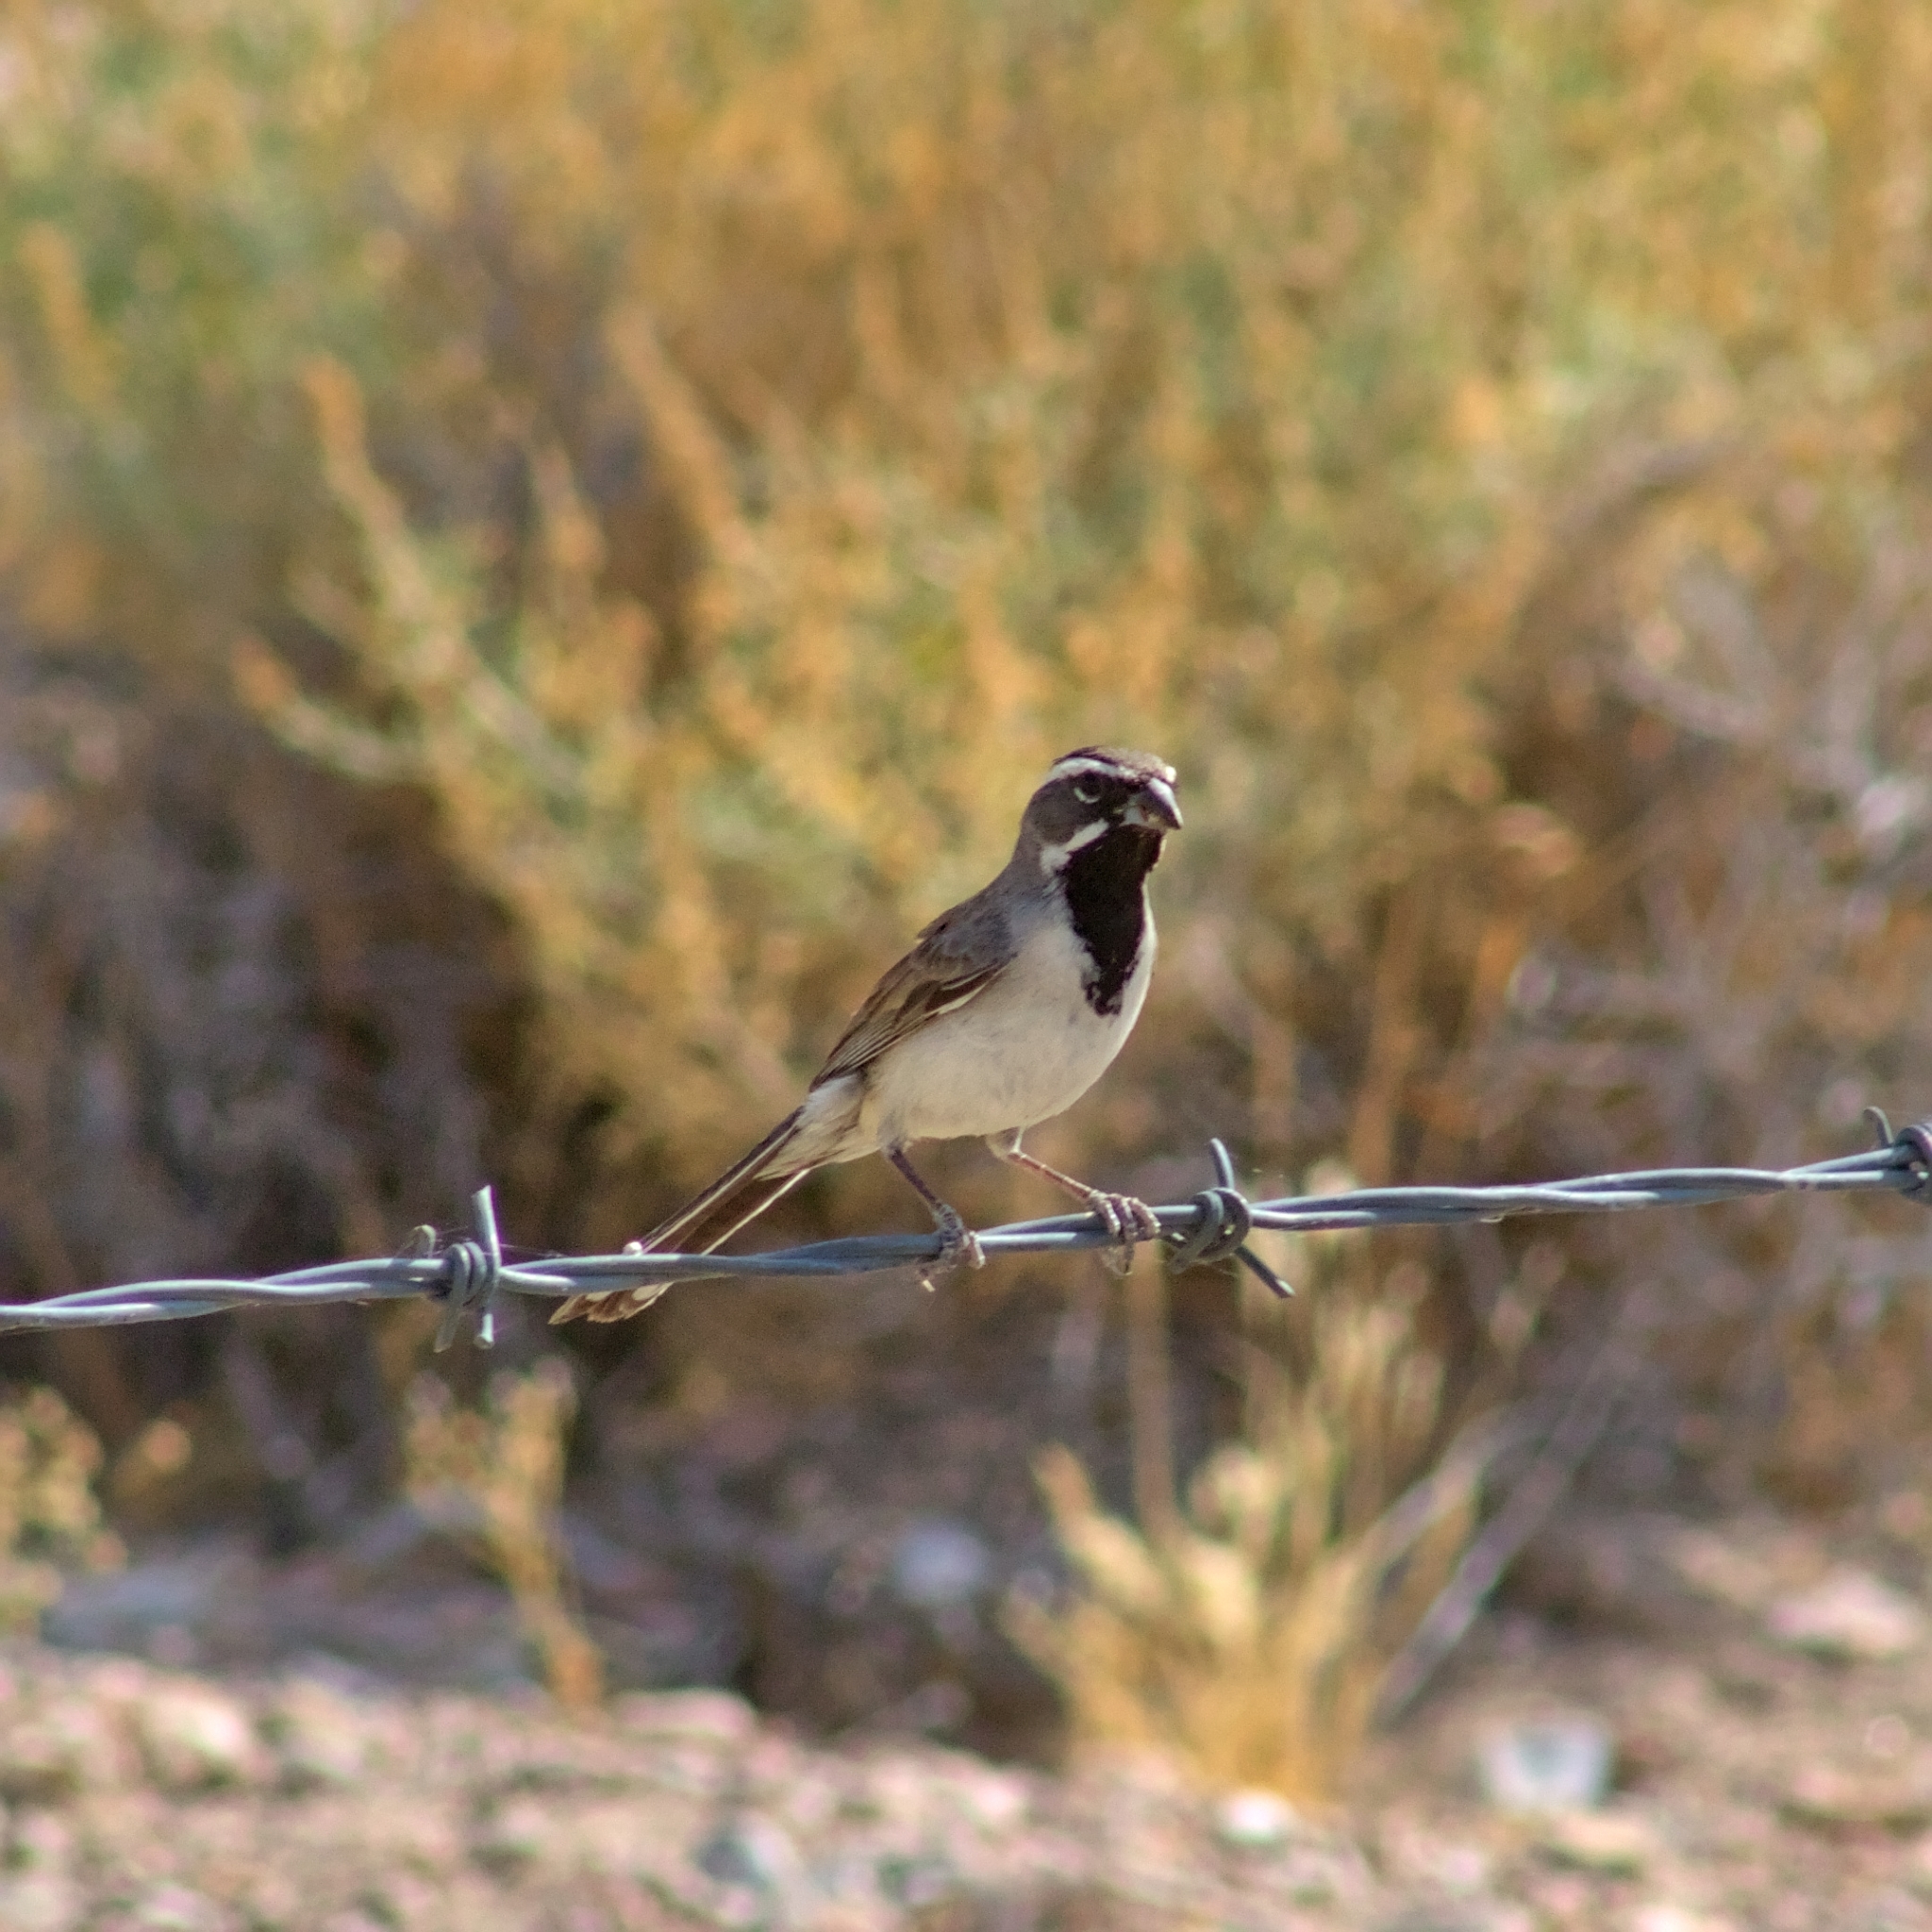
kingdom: Animalia
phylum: Chordata
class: Aves
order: Passeriformes
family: Passerellidae
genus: Amphispiza
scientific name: Amphispiza bilineata
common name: Black-throated sparrow
